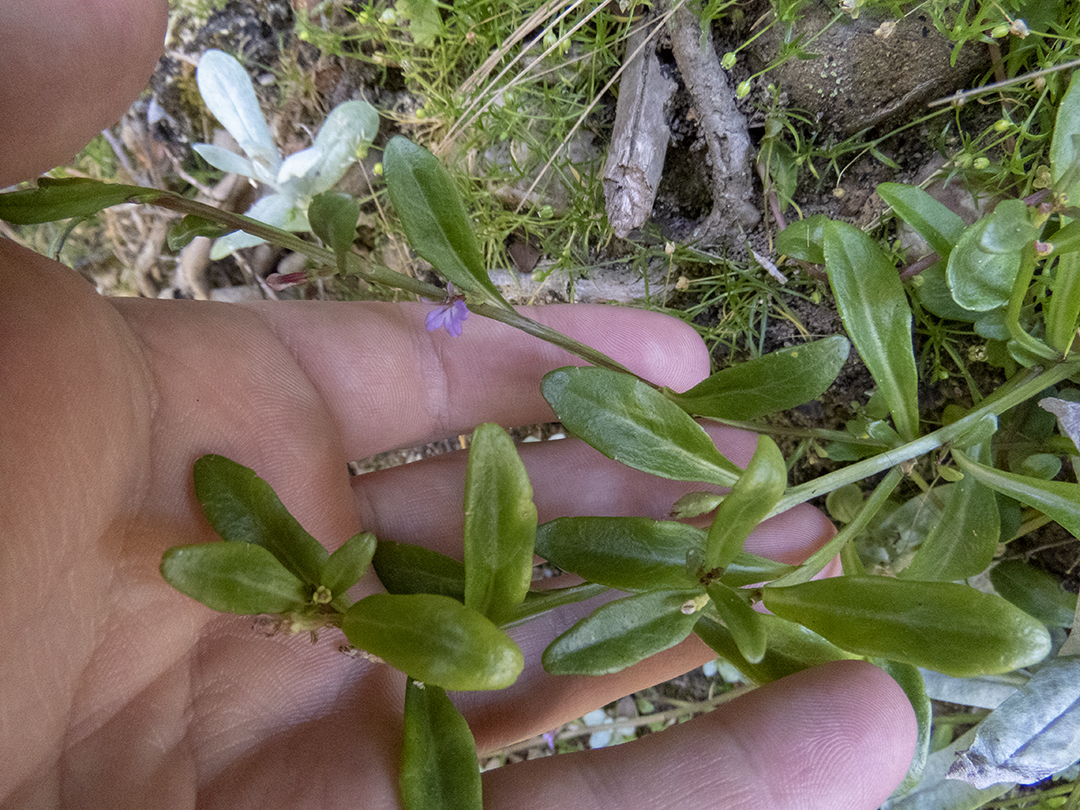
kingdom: Plantae
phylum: Tracheophyta
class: Magnoliopsida
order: Asterales
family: Campanulaceae
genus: Lobelia
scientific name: Lobelia anceps
